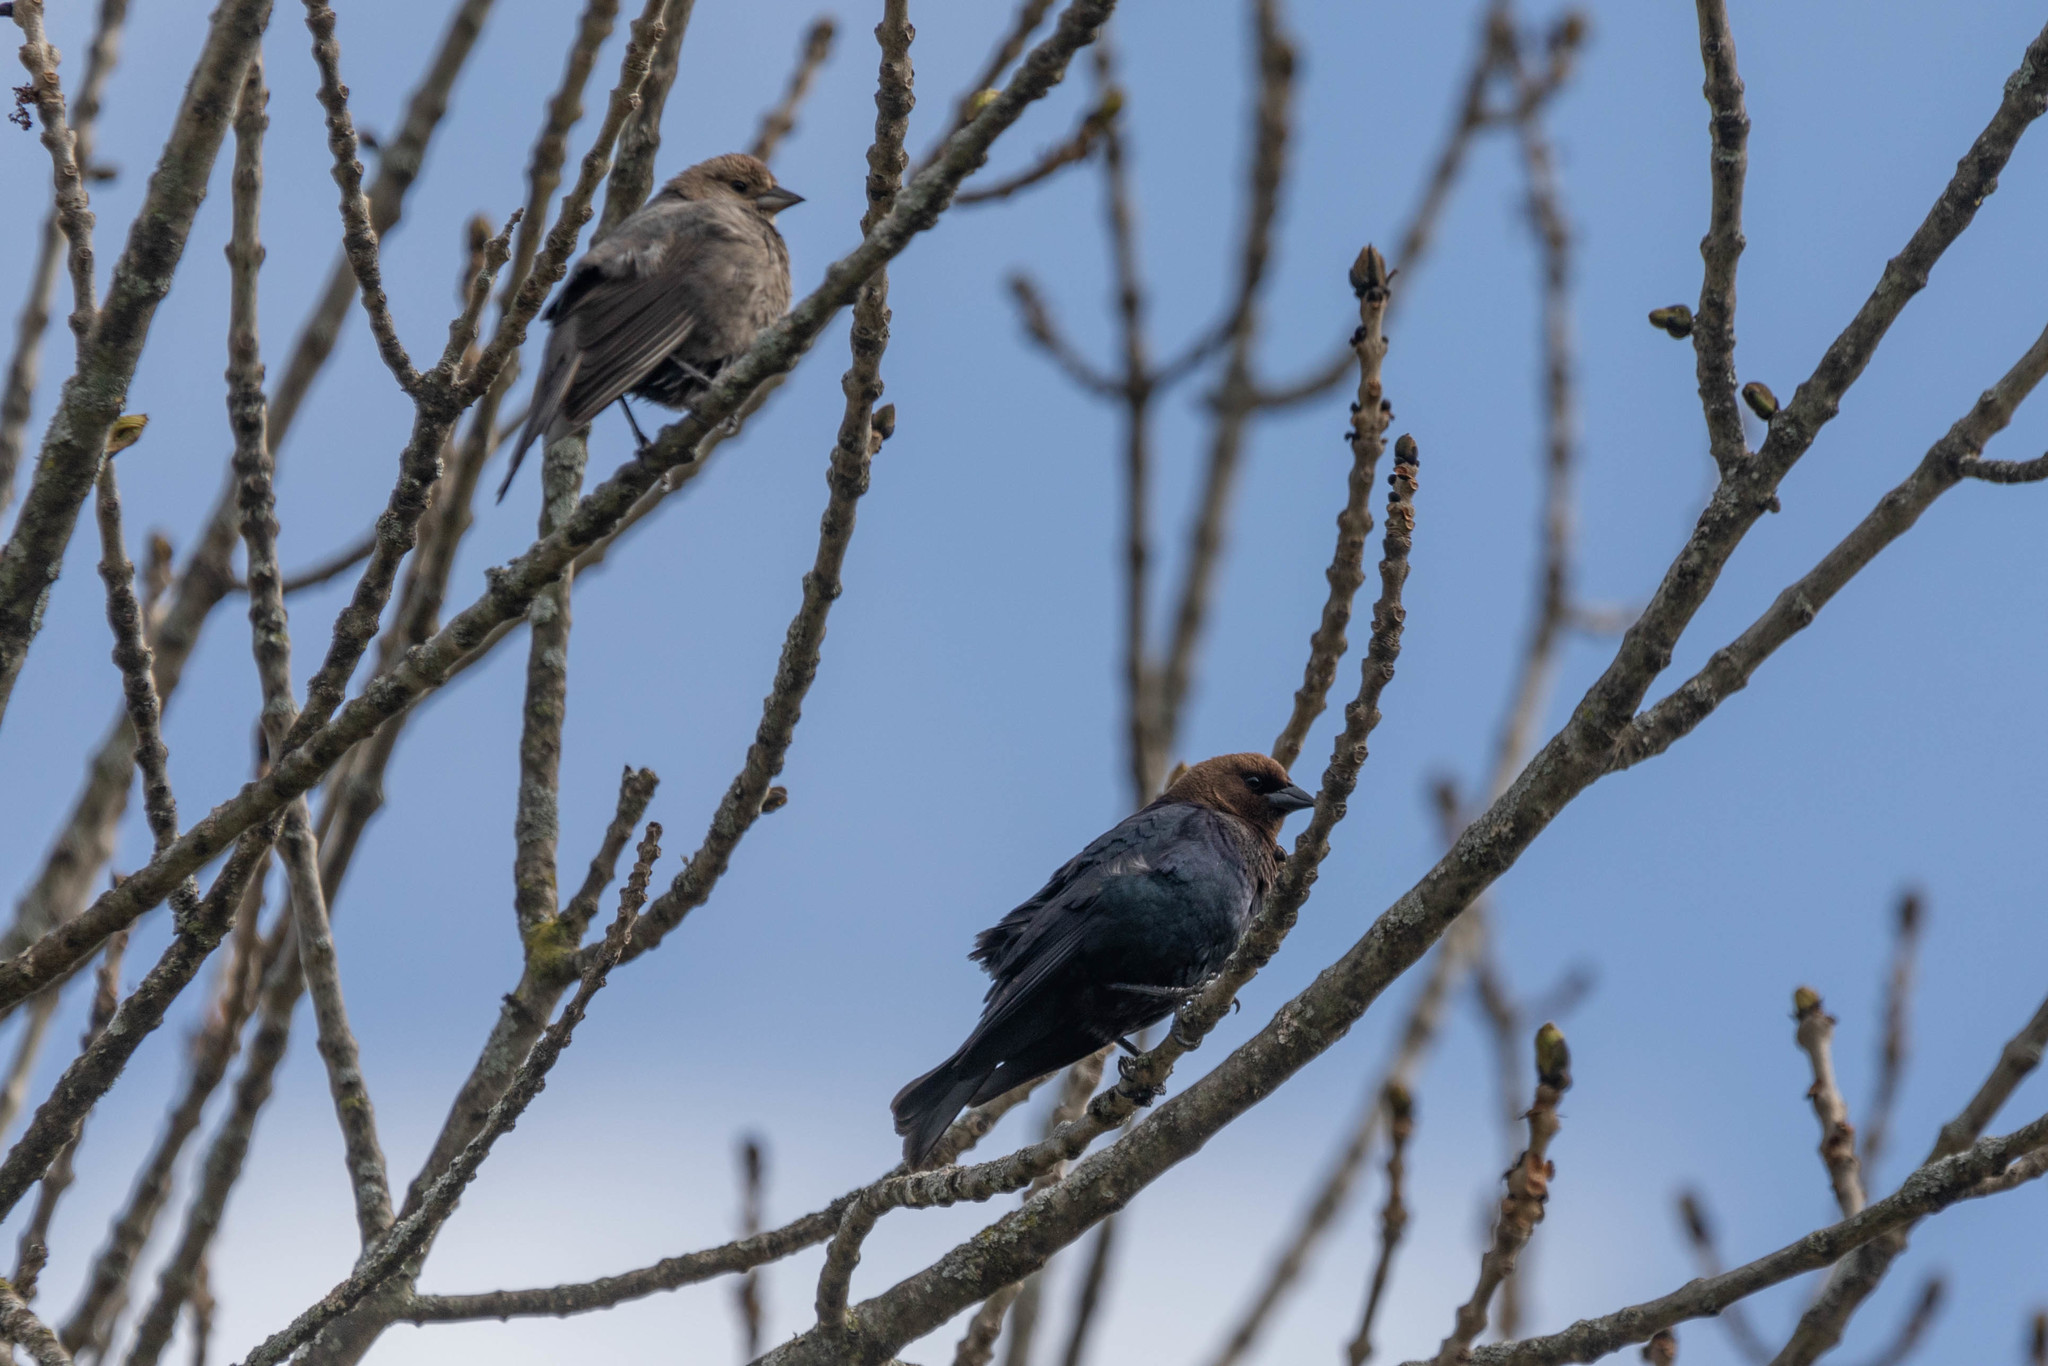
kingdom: Animalia
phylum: Chordata
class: Aves
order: Passeriformes
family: Icteridae
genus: Molothrus
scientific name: Molothrus ater
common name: Brown-headed cowbird
